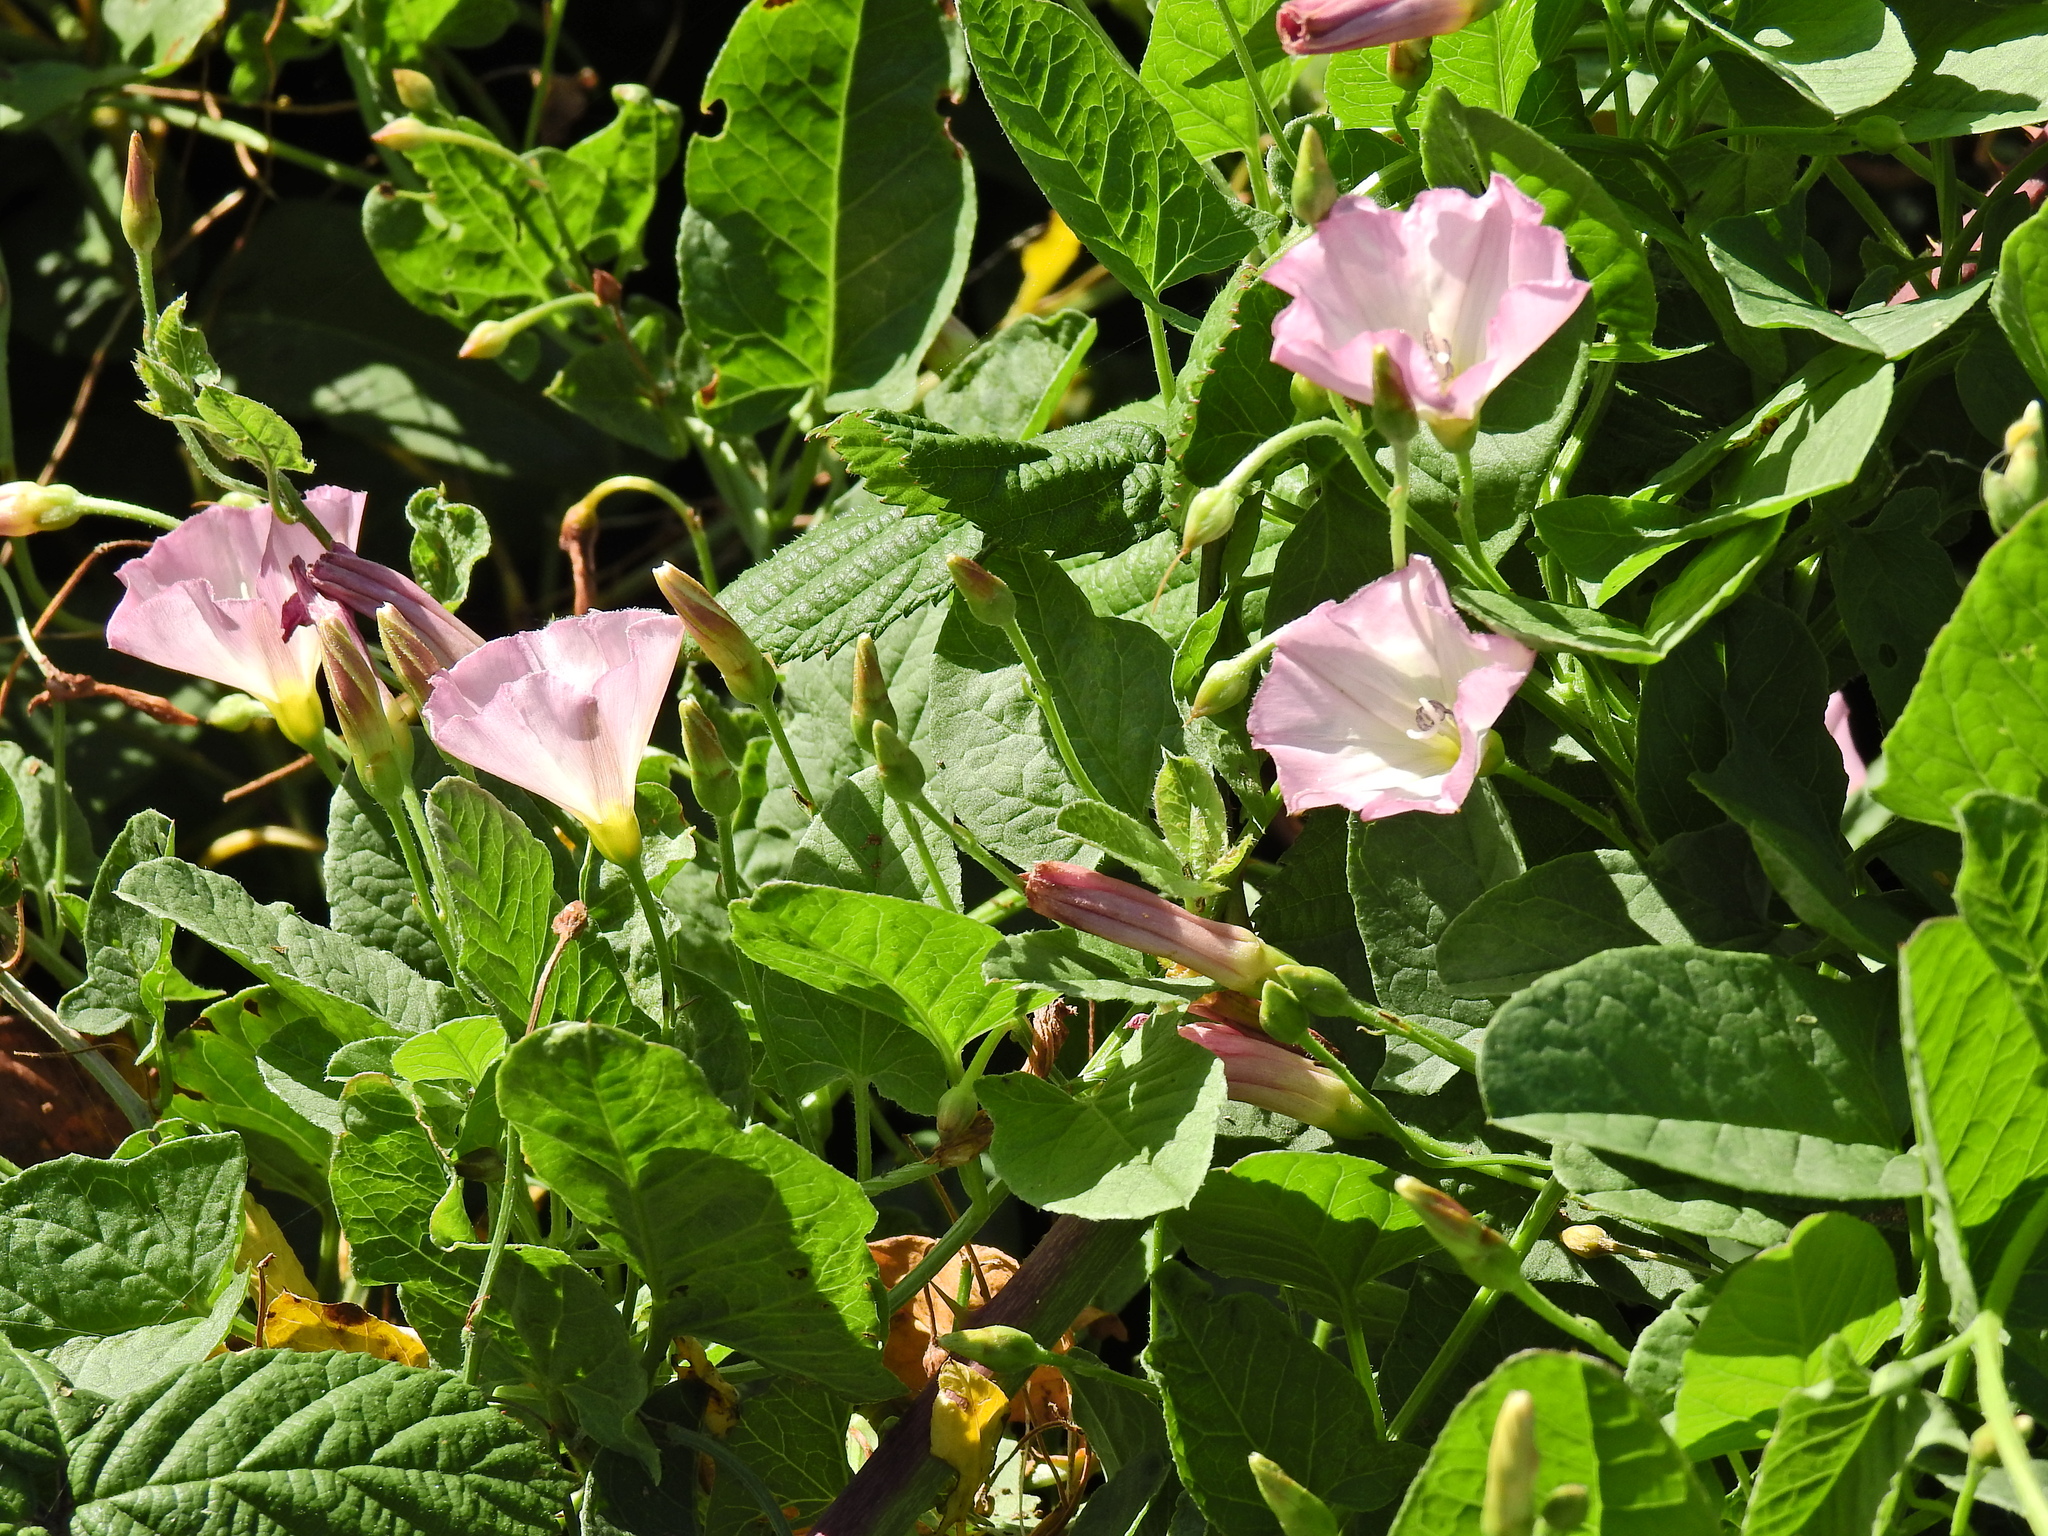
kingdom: Plantae
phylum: Tracheophyta
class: Magnoliopsida
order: Solanales
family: Convolvulaceae
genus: Convolvulus
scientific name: Convolvulus arvensis
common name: Field bindweed
